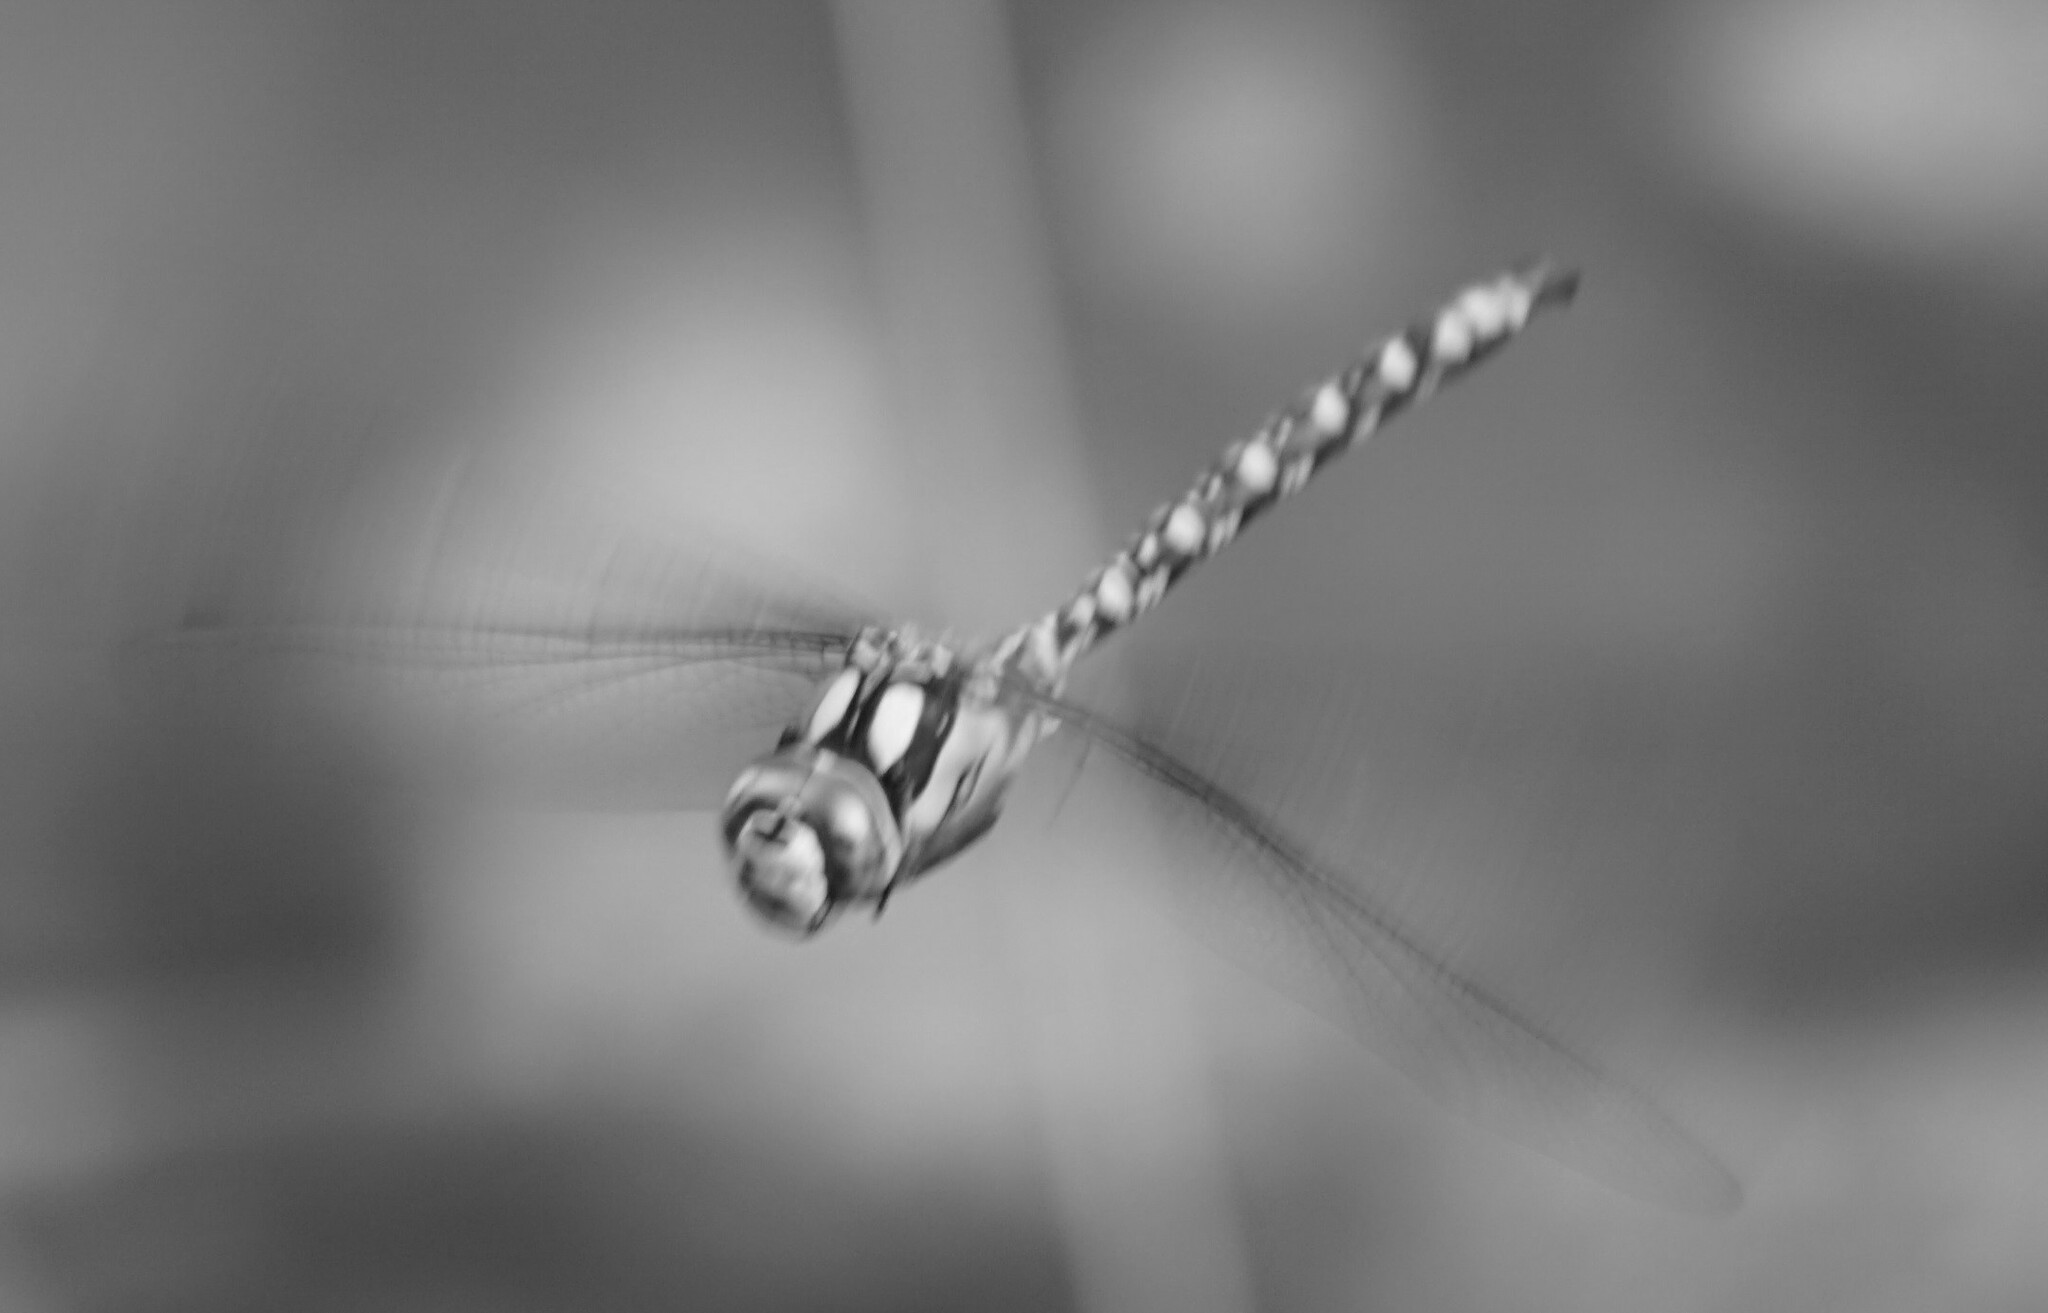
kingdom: Animalia
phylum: Arthropoda
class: Insecta
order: Odonata
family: Aeshnidae
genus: Aeshna
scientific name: Aeshna cyanea
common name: Southern hawker
